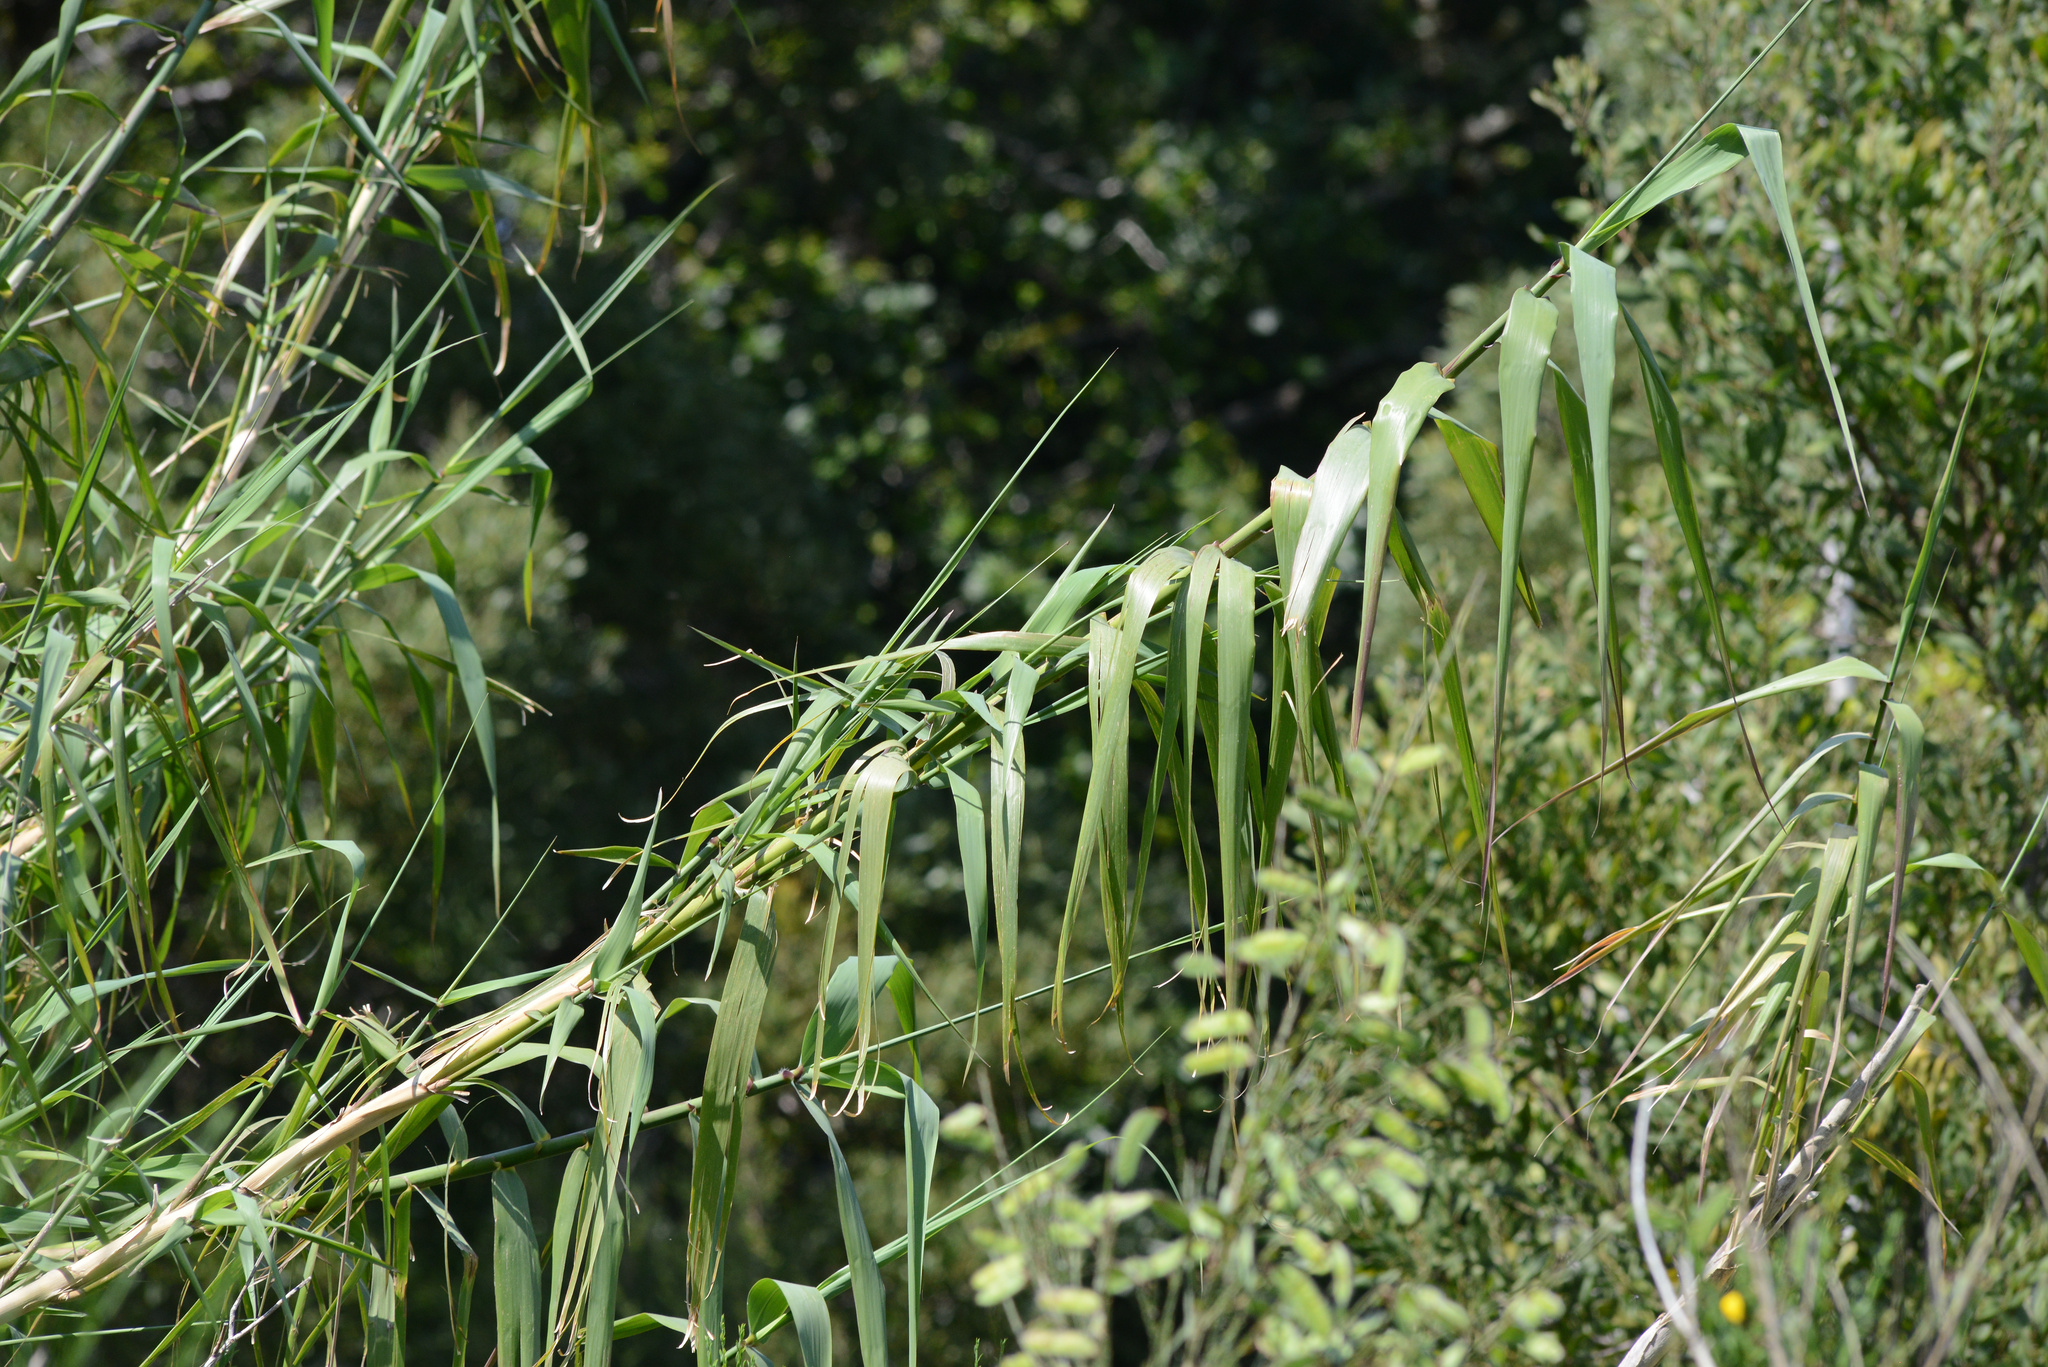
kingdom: Plantae
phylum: Tracheophyta
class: Liliopsida
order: Poales
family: Poaceae
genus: Arundo
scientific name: Arundo donax
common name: Giant reed
